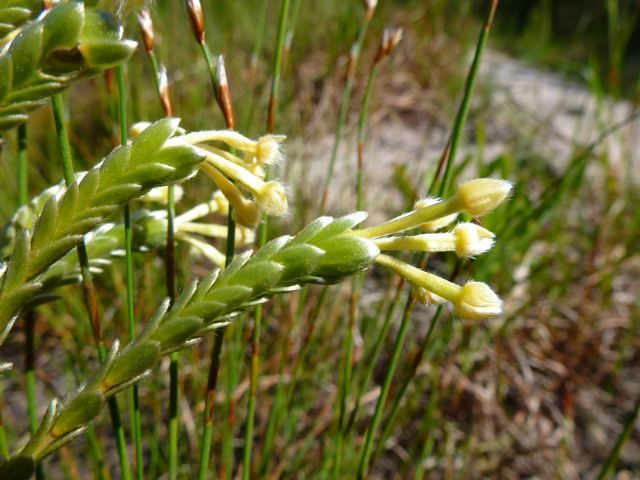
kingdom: Plantae
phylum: Tracheophyta
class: Magnoliopsida
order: Malvales
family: Thymelaeaceae
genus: Gnidia
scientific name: Gnidia chrysophylla
